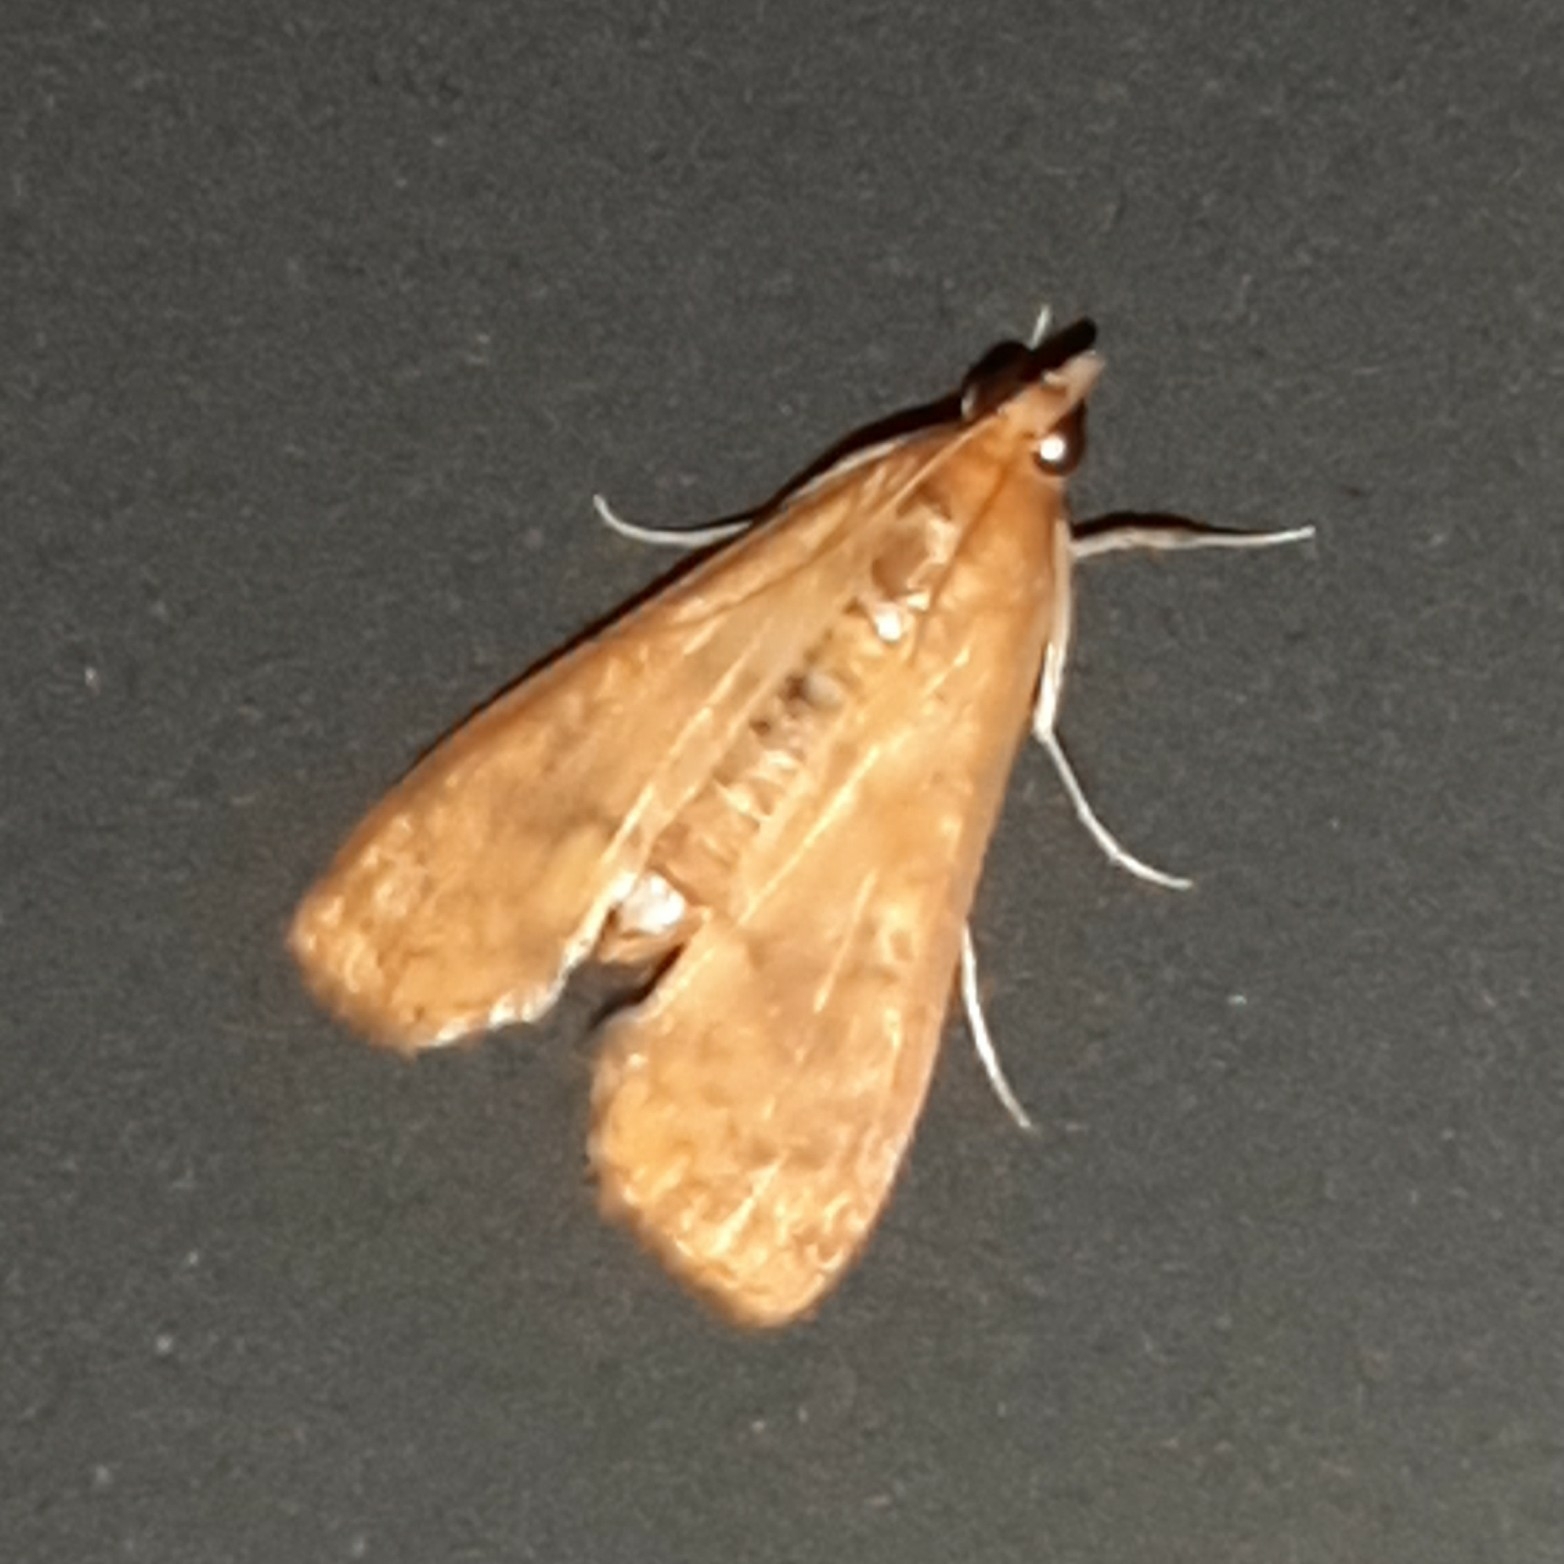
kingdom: Animalia
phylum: Arthropoda
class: Insecta
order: Lepidoptera
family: Crambidae
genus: Liopasia
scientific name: Liopasia ochracealis
